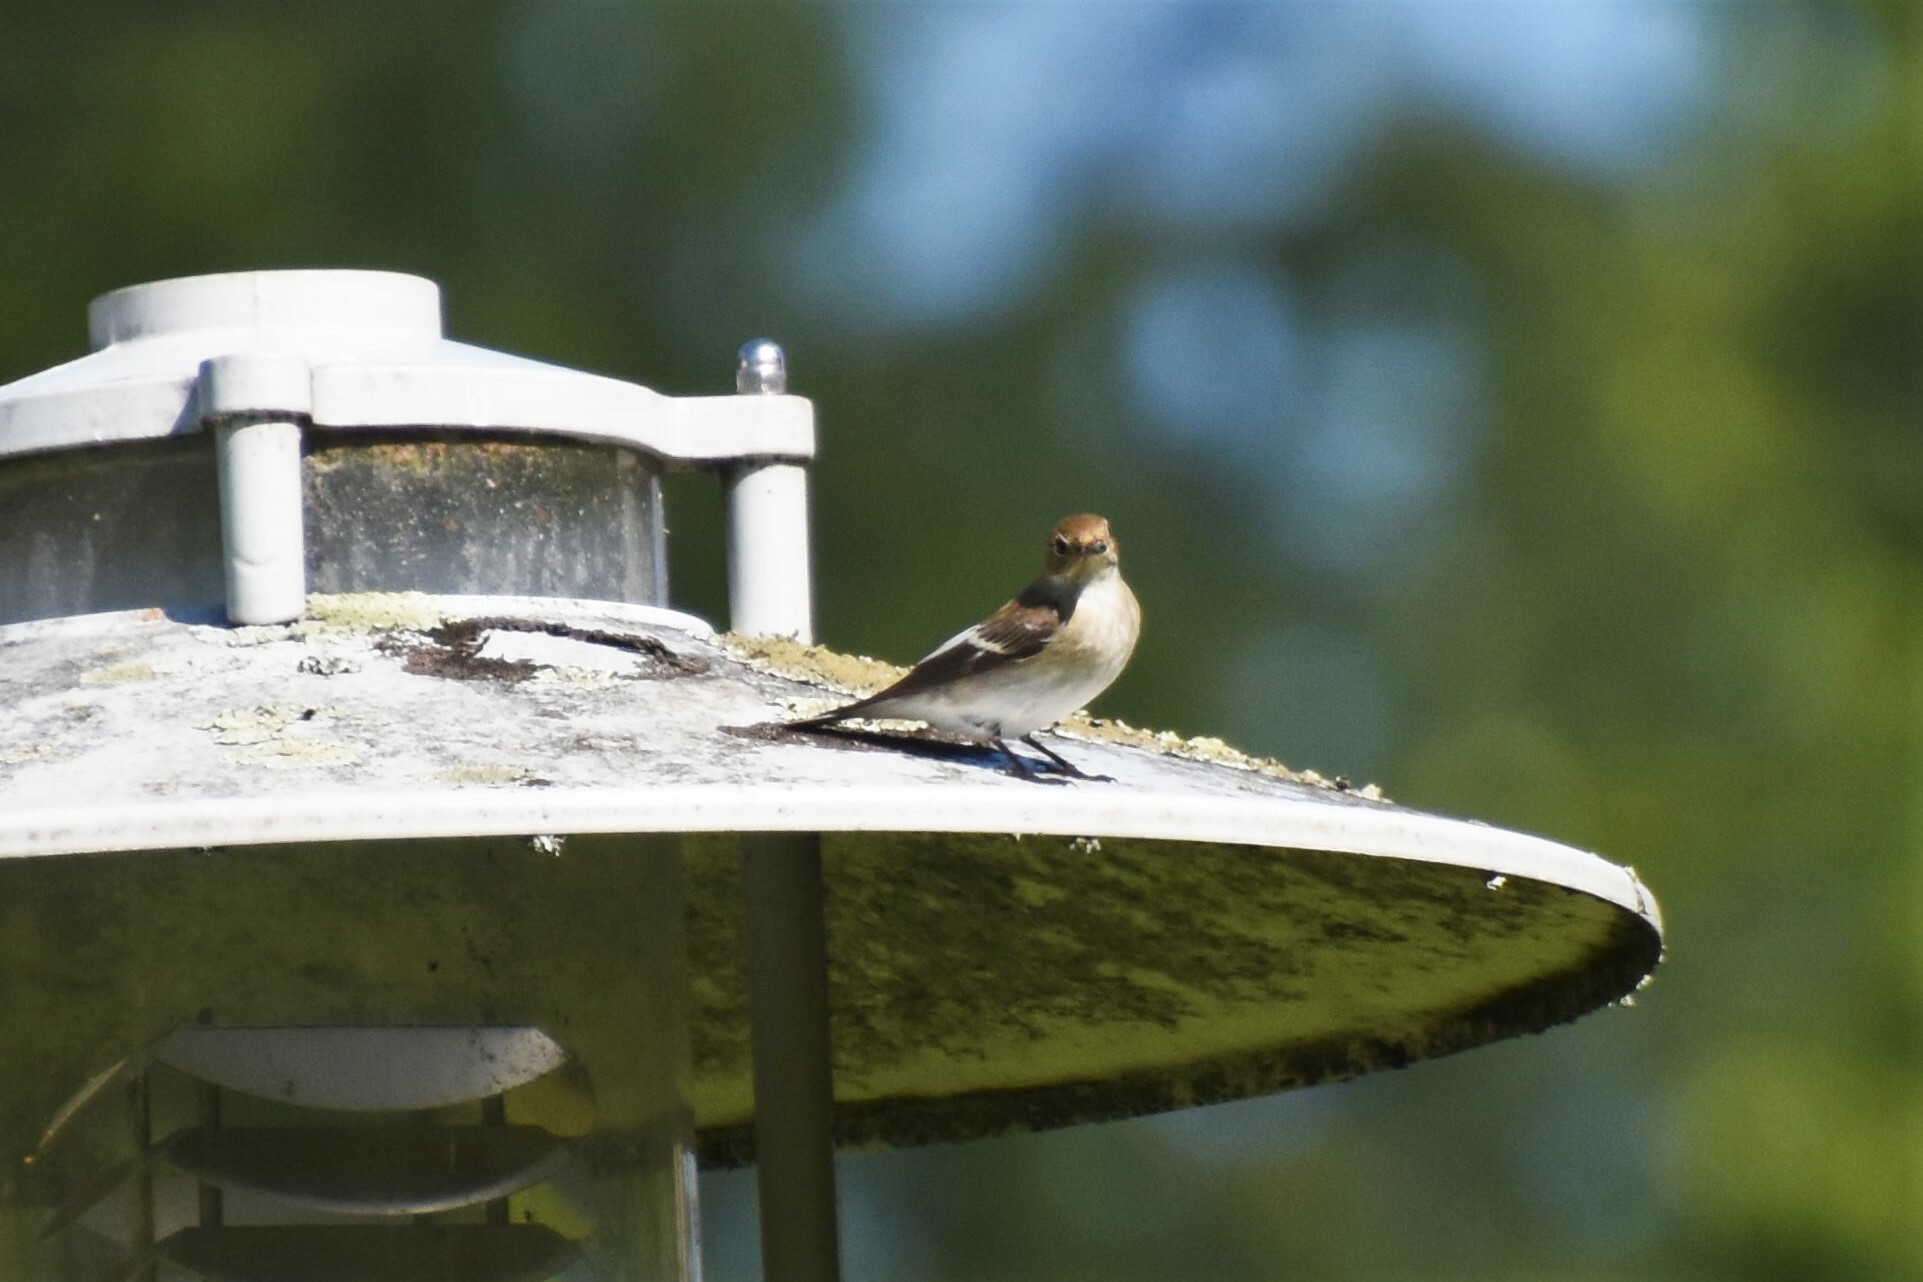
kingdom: Animalia
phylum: Chordata
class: Aves
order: Passeriformes
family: Muscicapidae
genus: Ficedula
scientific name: Ficedula hypoleuca
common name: European pied flycatcher
